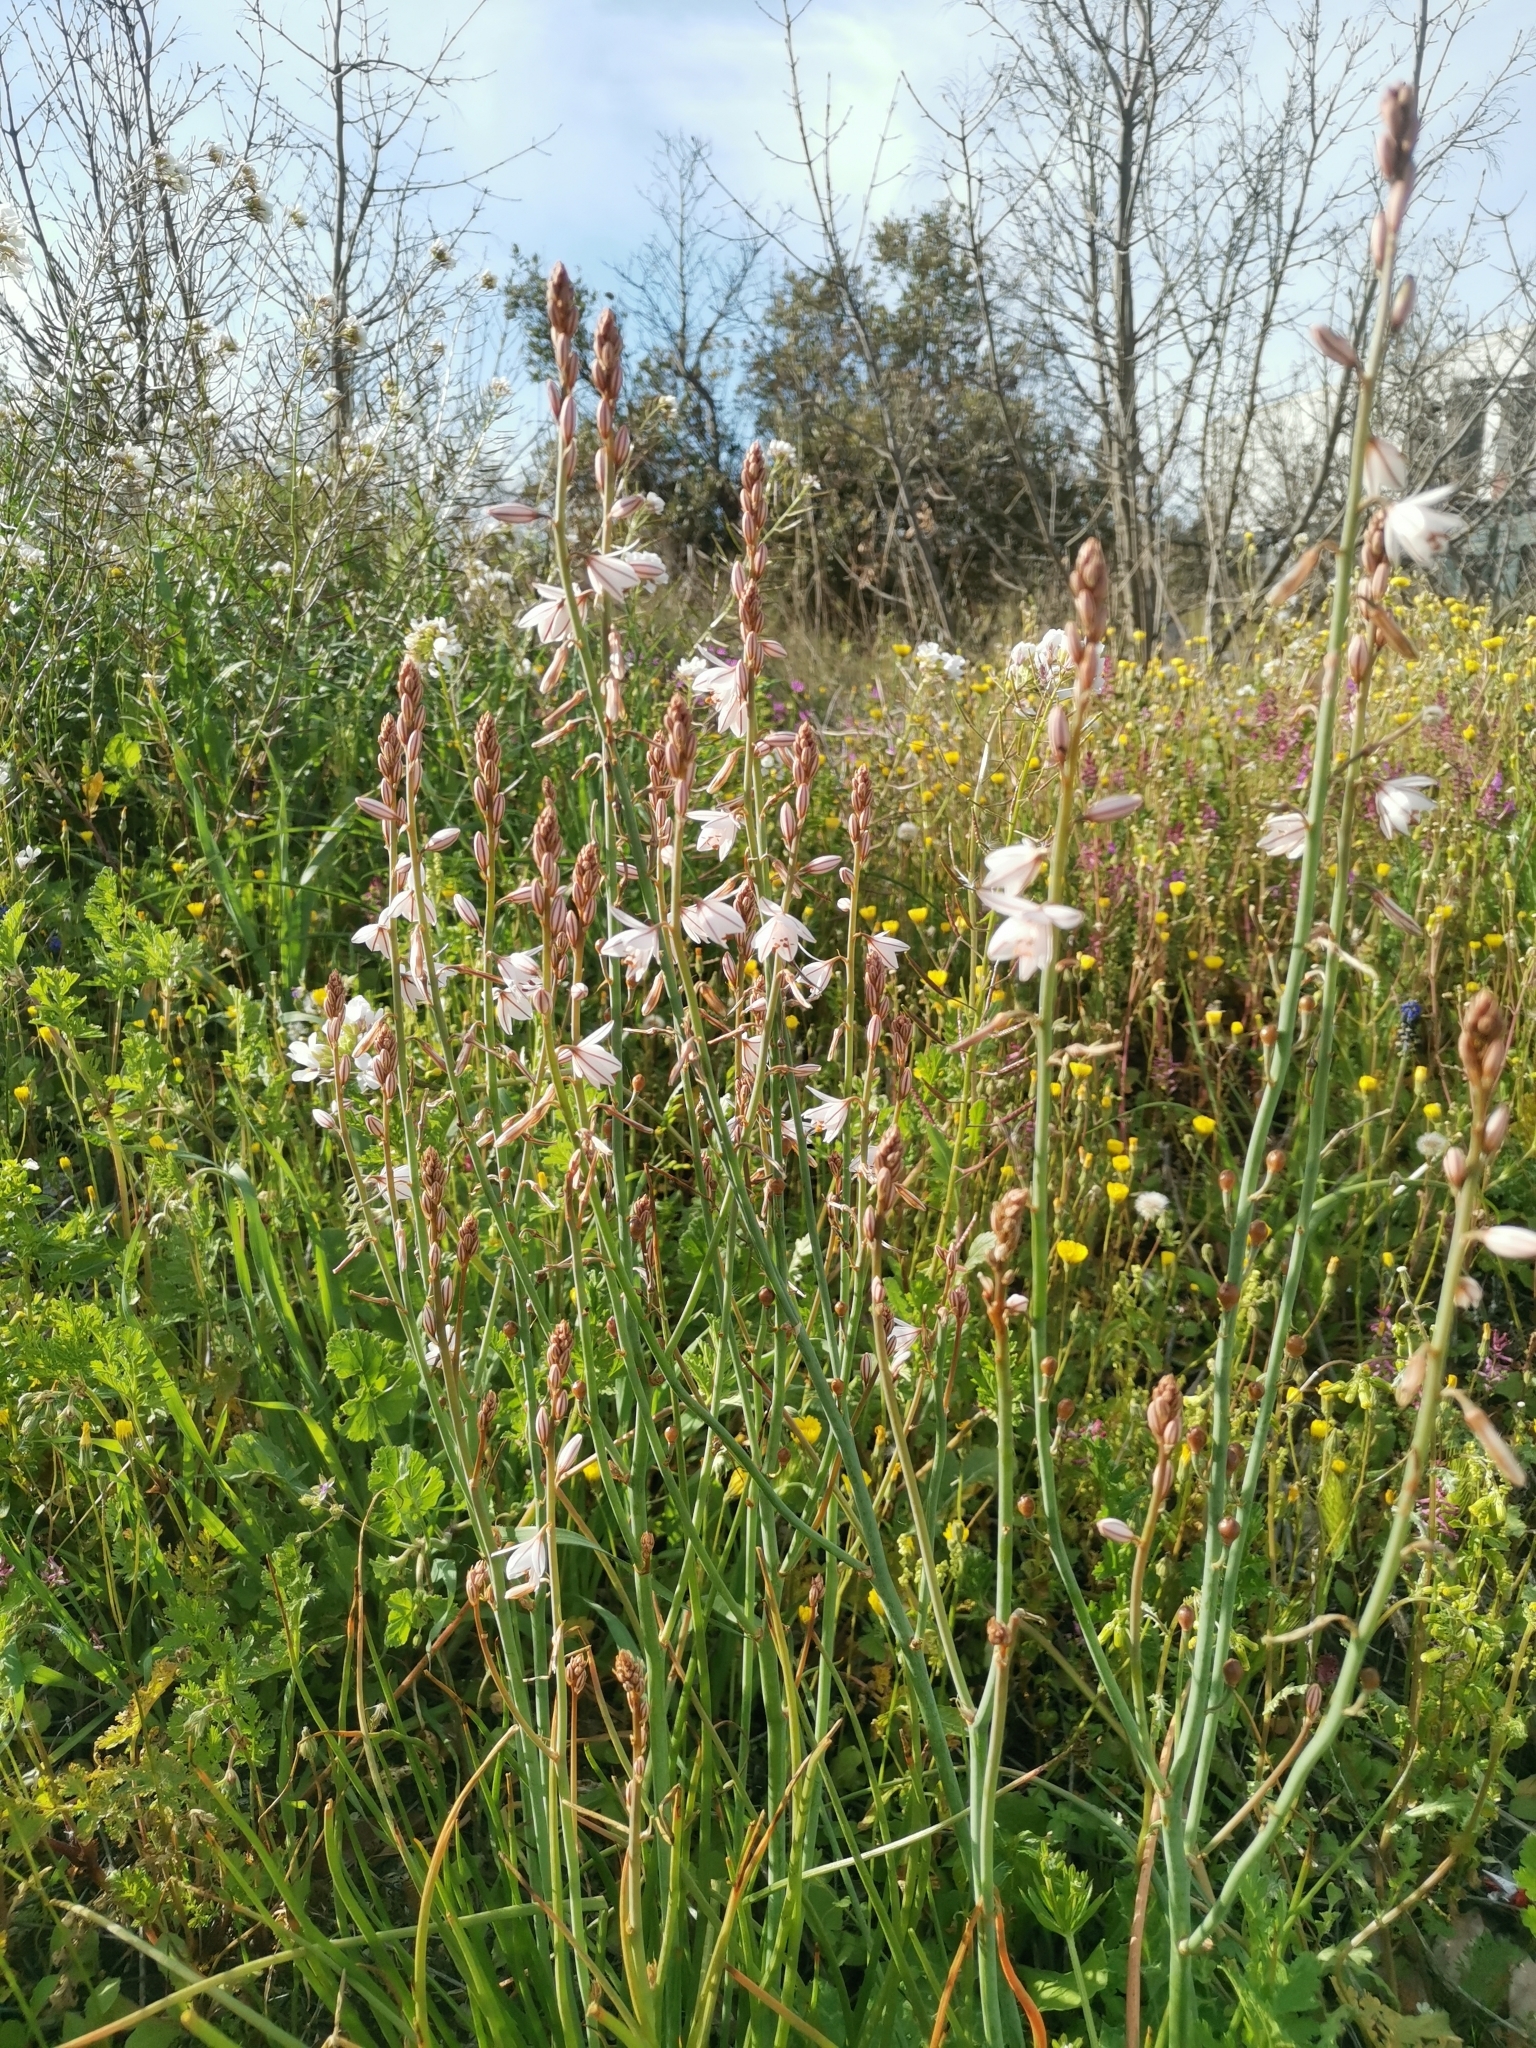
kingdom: Plantae
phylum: Tracheophyta
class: Liliopsida
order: Asparagales
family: Asphodelaceae
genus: Asphodelus
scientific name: Asphodelus fistulosus
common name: Onionweed
